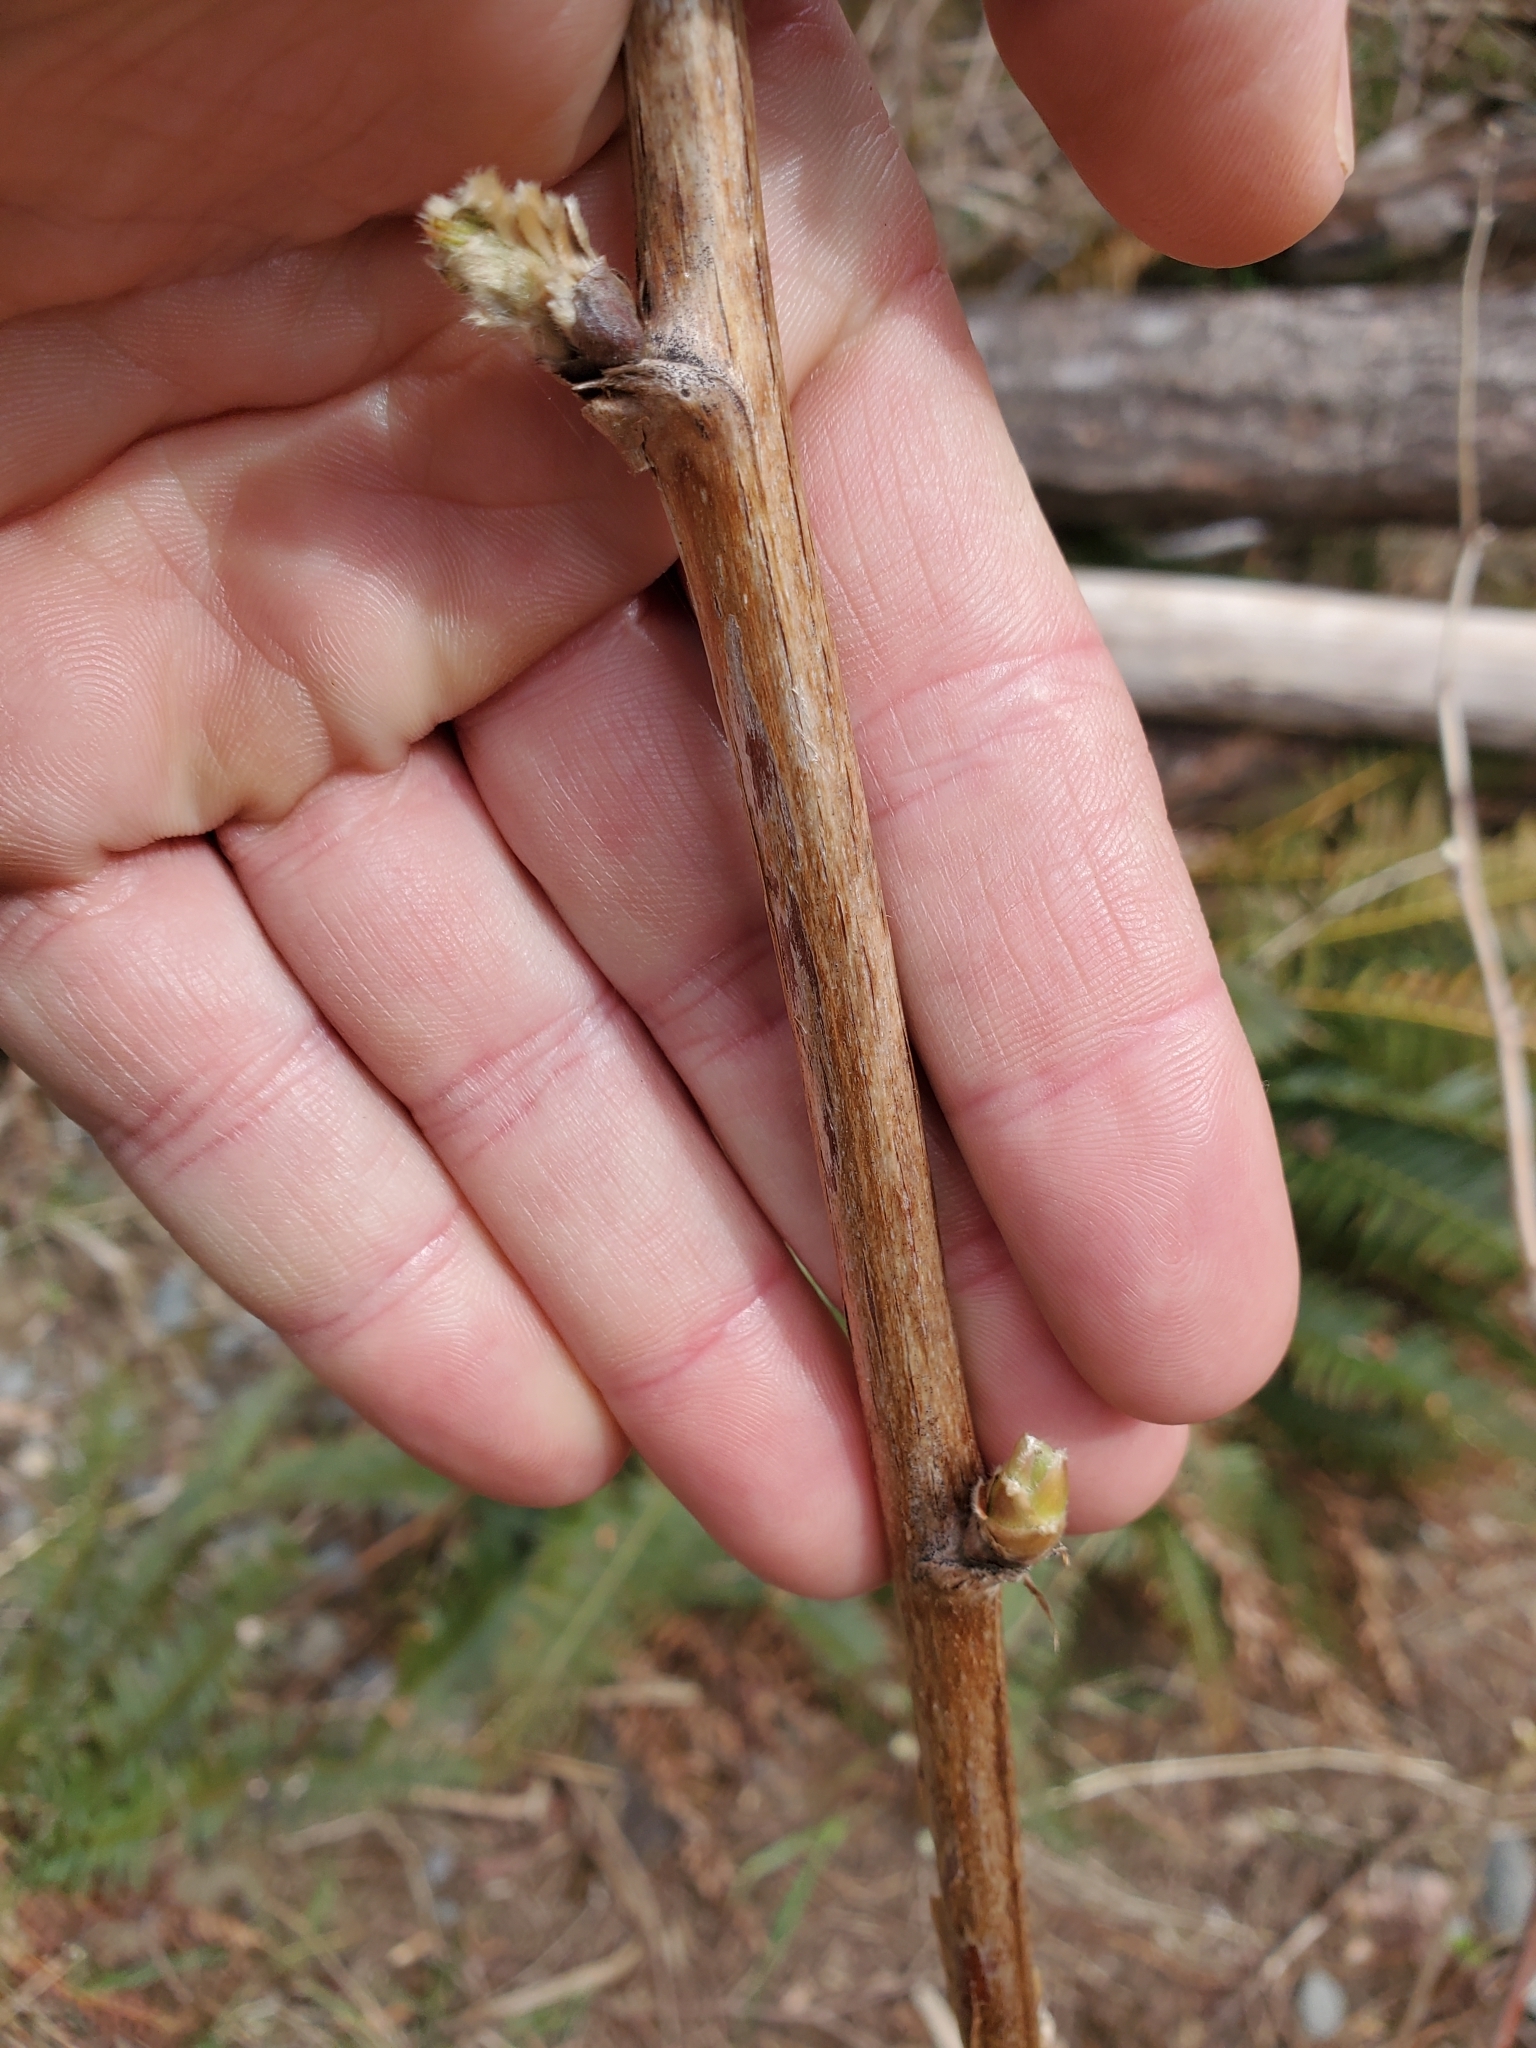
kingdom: Plantae
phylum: Tracheophyta
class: Magnoliopsida
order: Rosales
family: Rosaceae
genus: Rubus
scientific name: Rubus parviflorus
